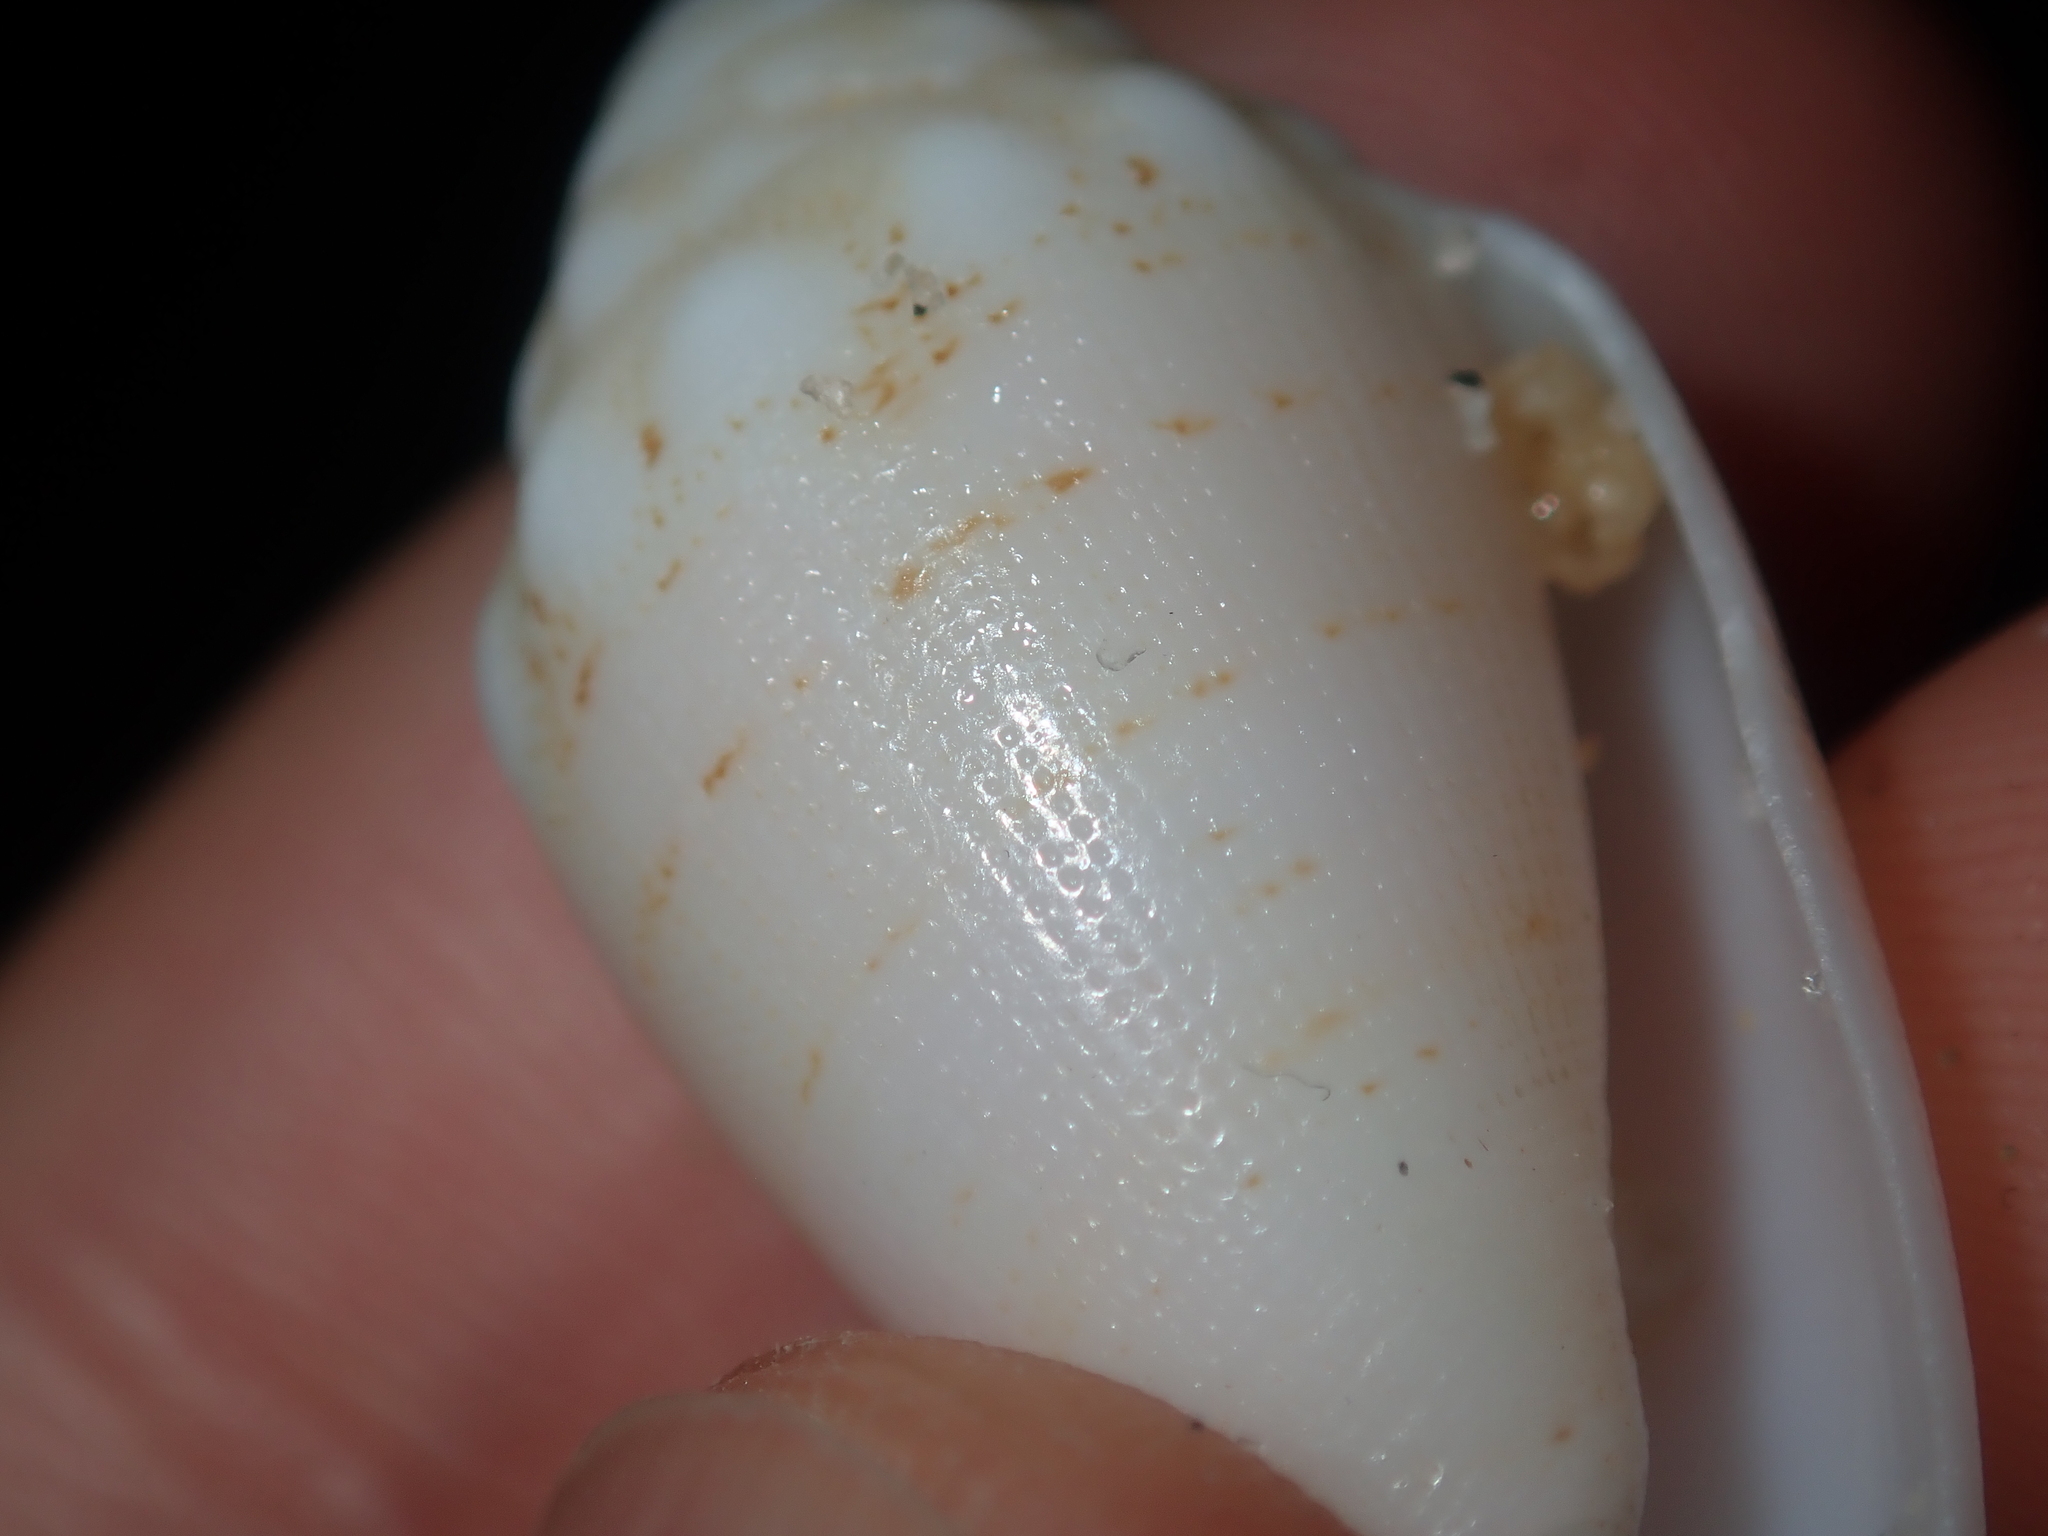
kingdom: Animalia
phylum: Mollusca
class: Gastropoda
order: Neogastropoda
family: Conidae
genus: Conus
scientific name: Conus dorreensis
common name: Pontificial cone
